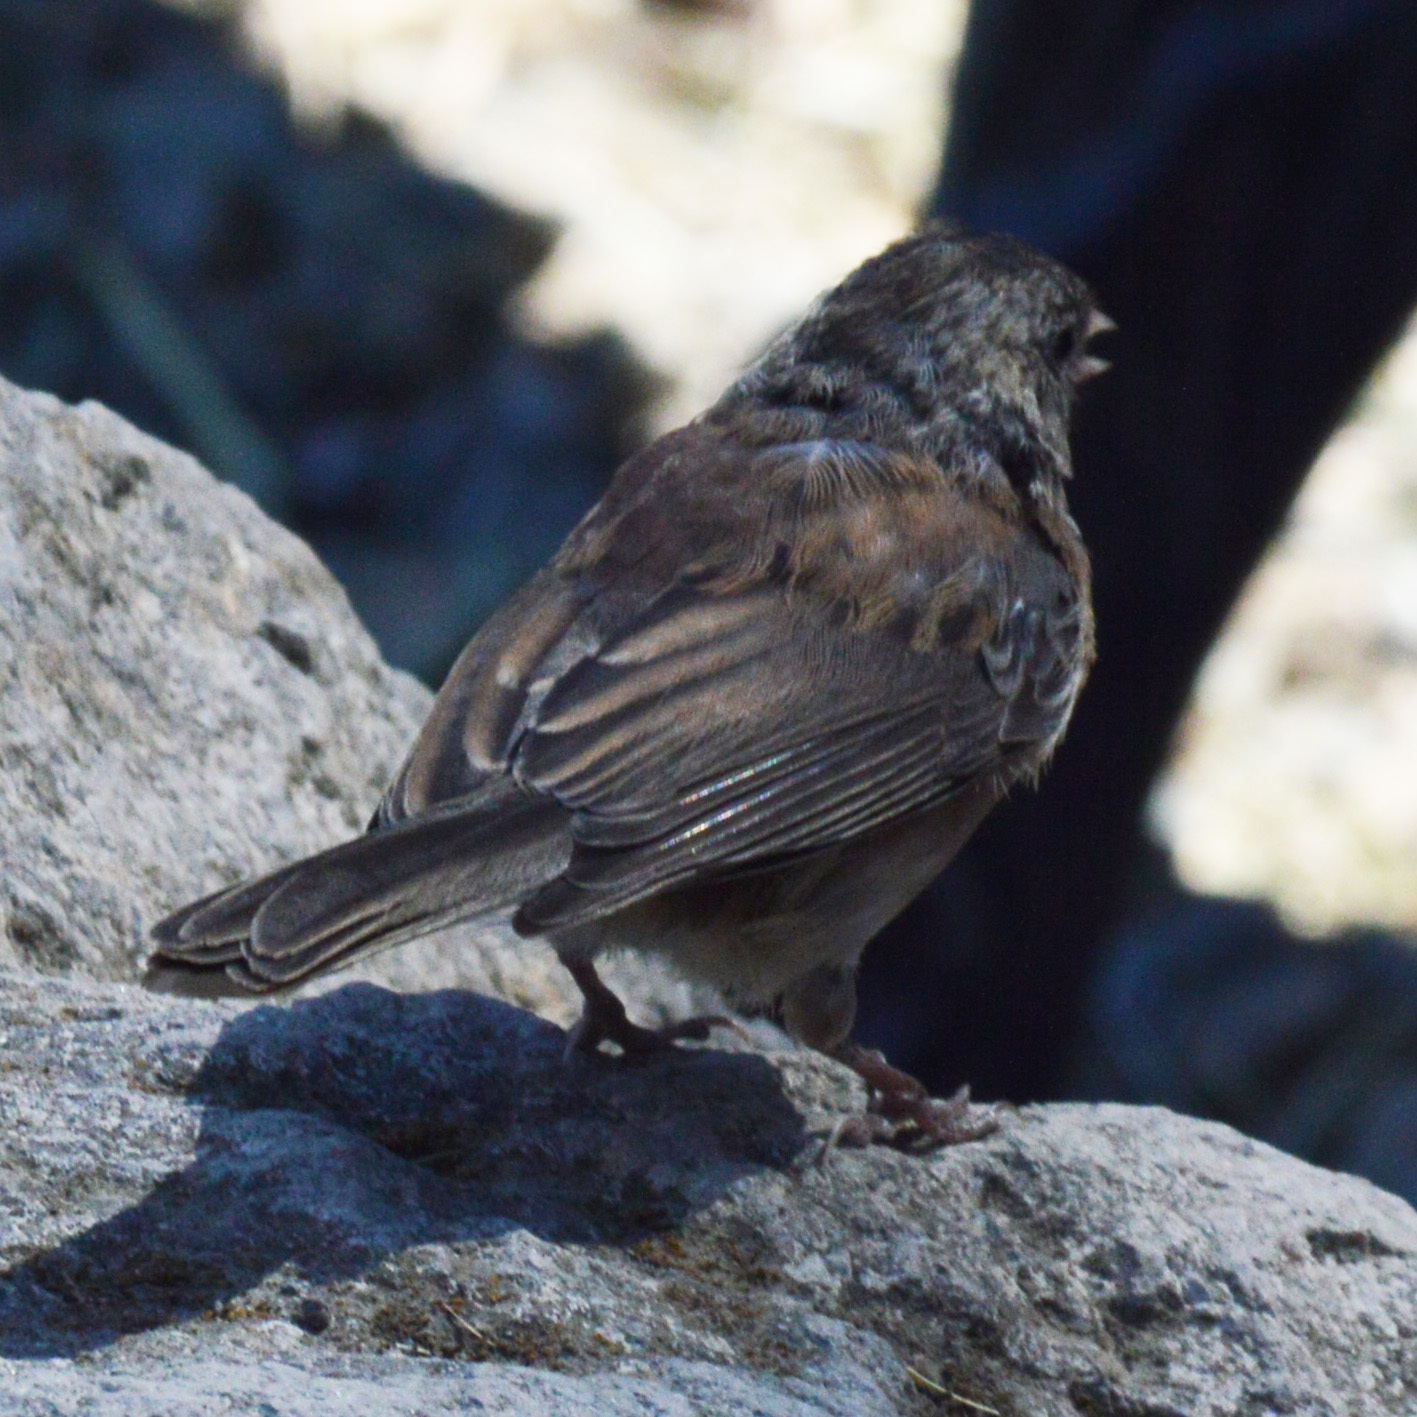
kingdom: Animalia
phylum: Chordata
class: Aves
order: Passeriformes
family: Passerellidae
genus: Junco
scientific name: Junco hyemalis
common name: Dark-eyed junco
